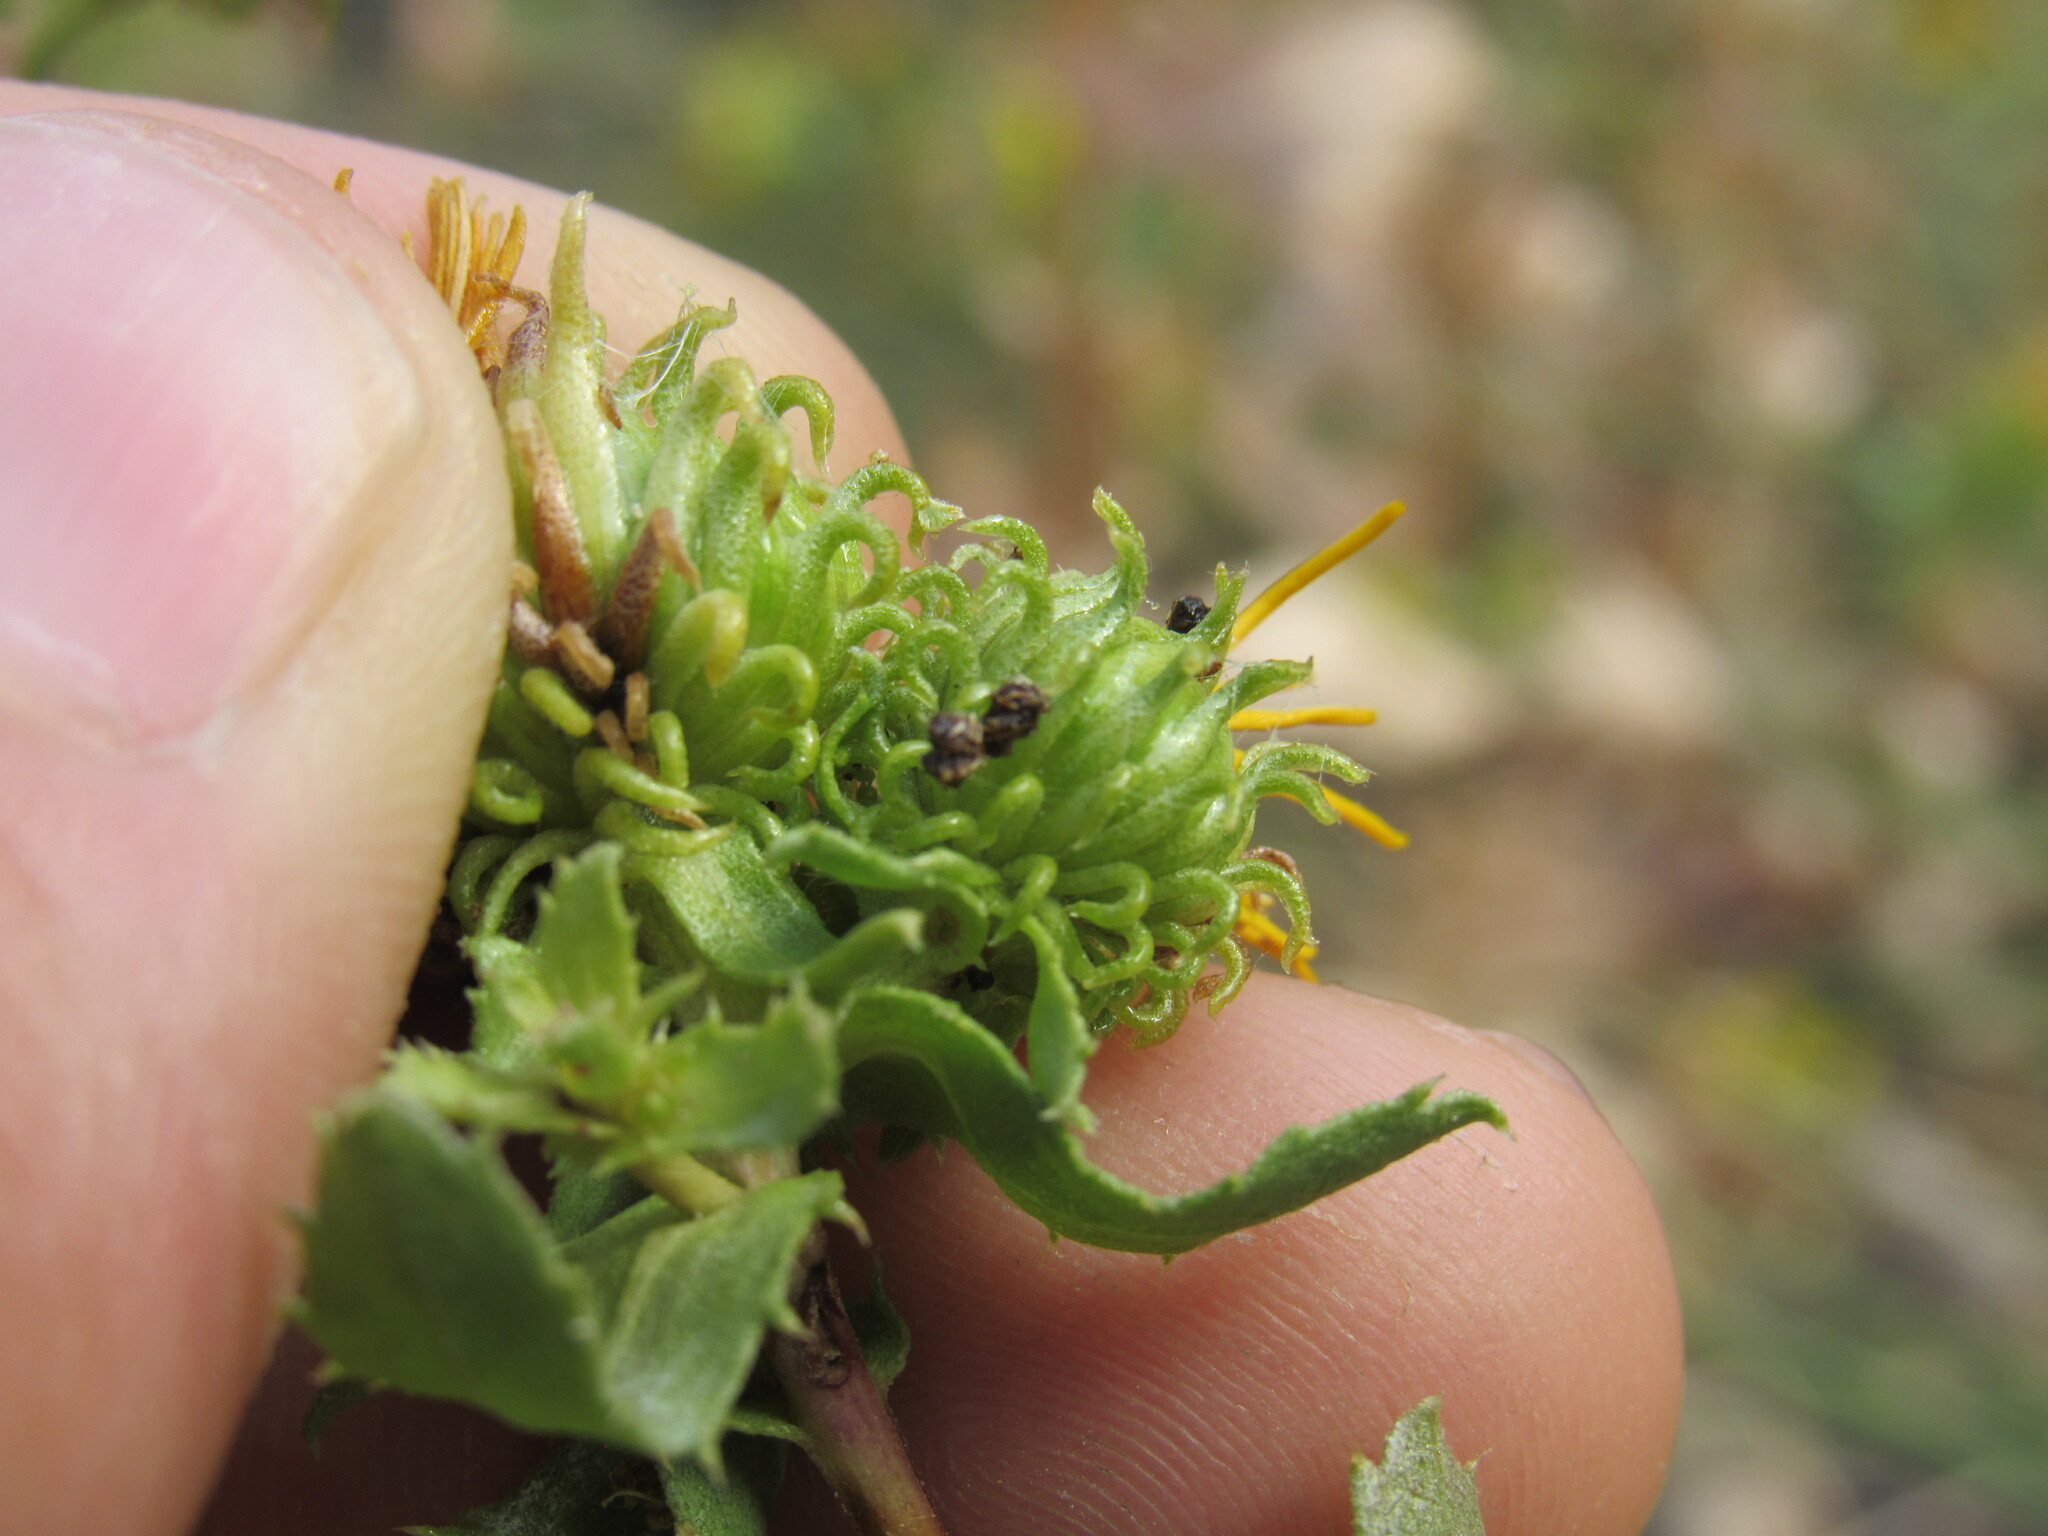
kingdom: Plantae
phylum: Tracheophyta
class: Magnoliopsida
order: Asterales
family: Asteraceae
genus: Grindelia
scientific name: Grindelia squarrosa
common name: Curly-cup gumweed
